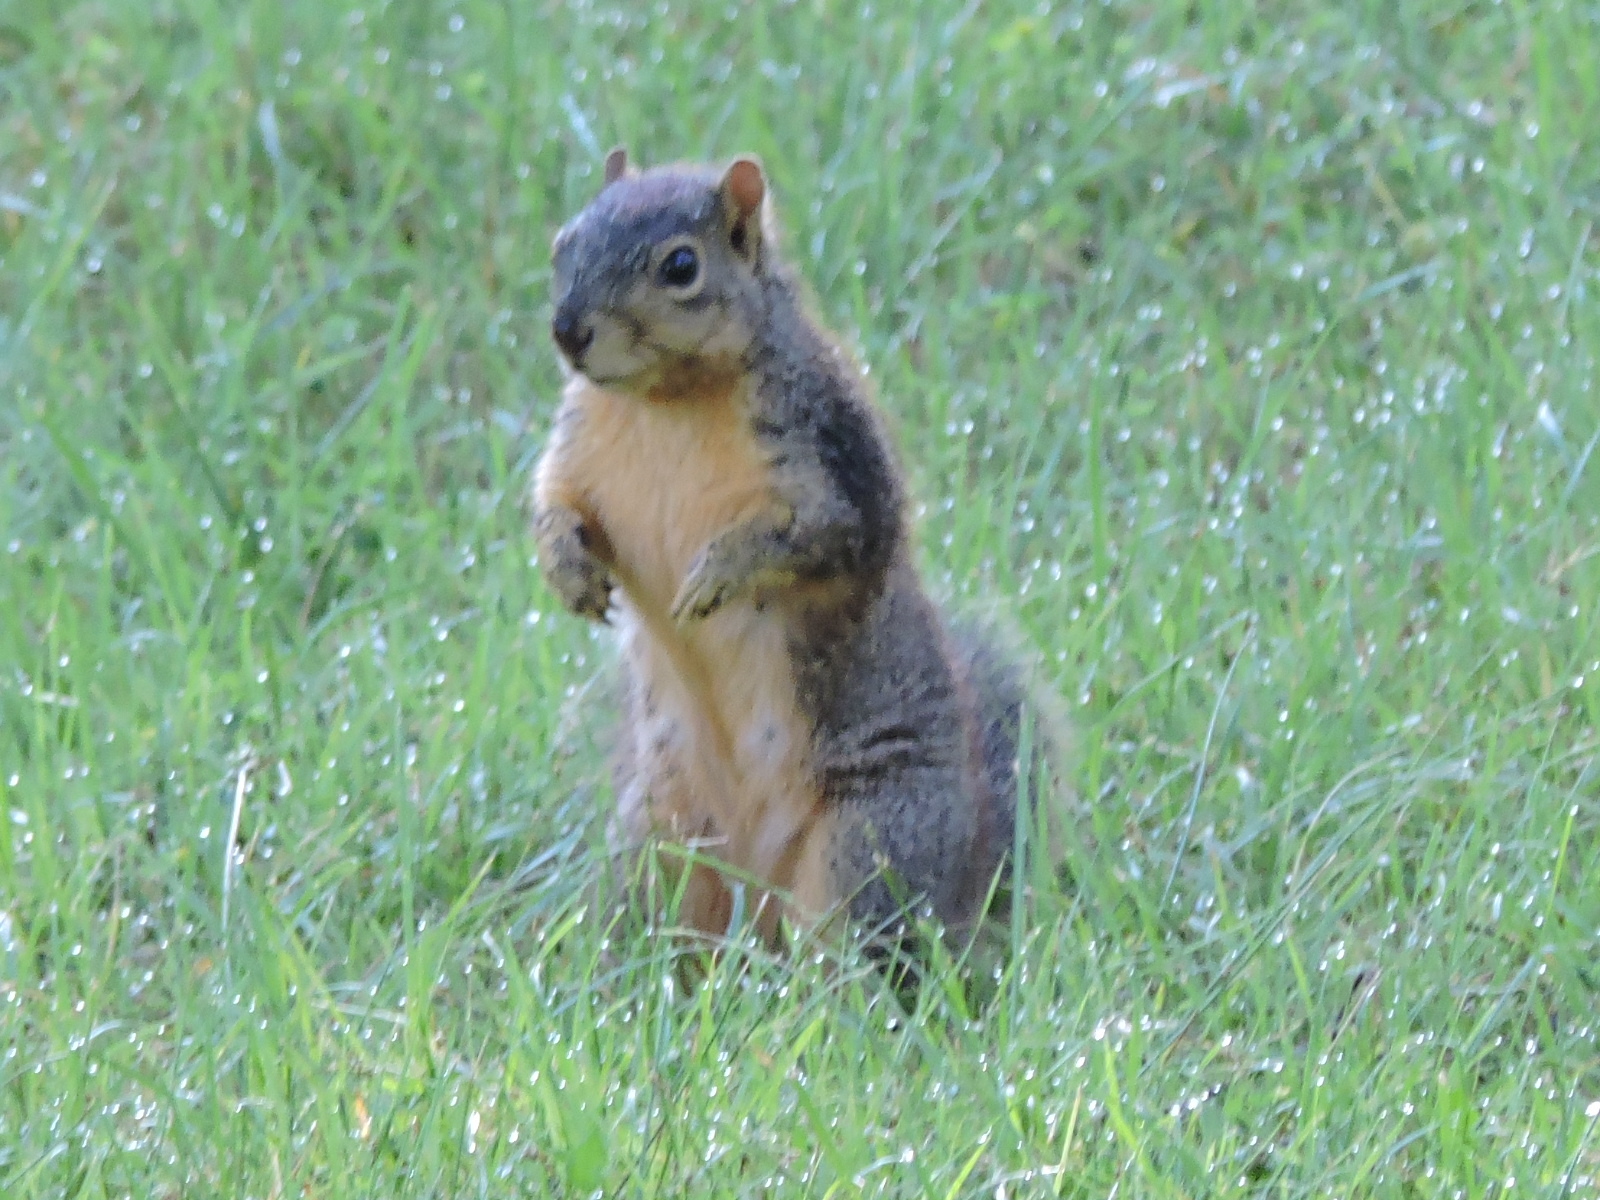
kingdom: Animalia
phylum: Chordata
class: Mammalia
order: Rodentia
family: Sciuridae
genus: Sciurus
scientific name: Sciurus niger
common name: Fox squirrel
